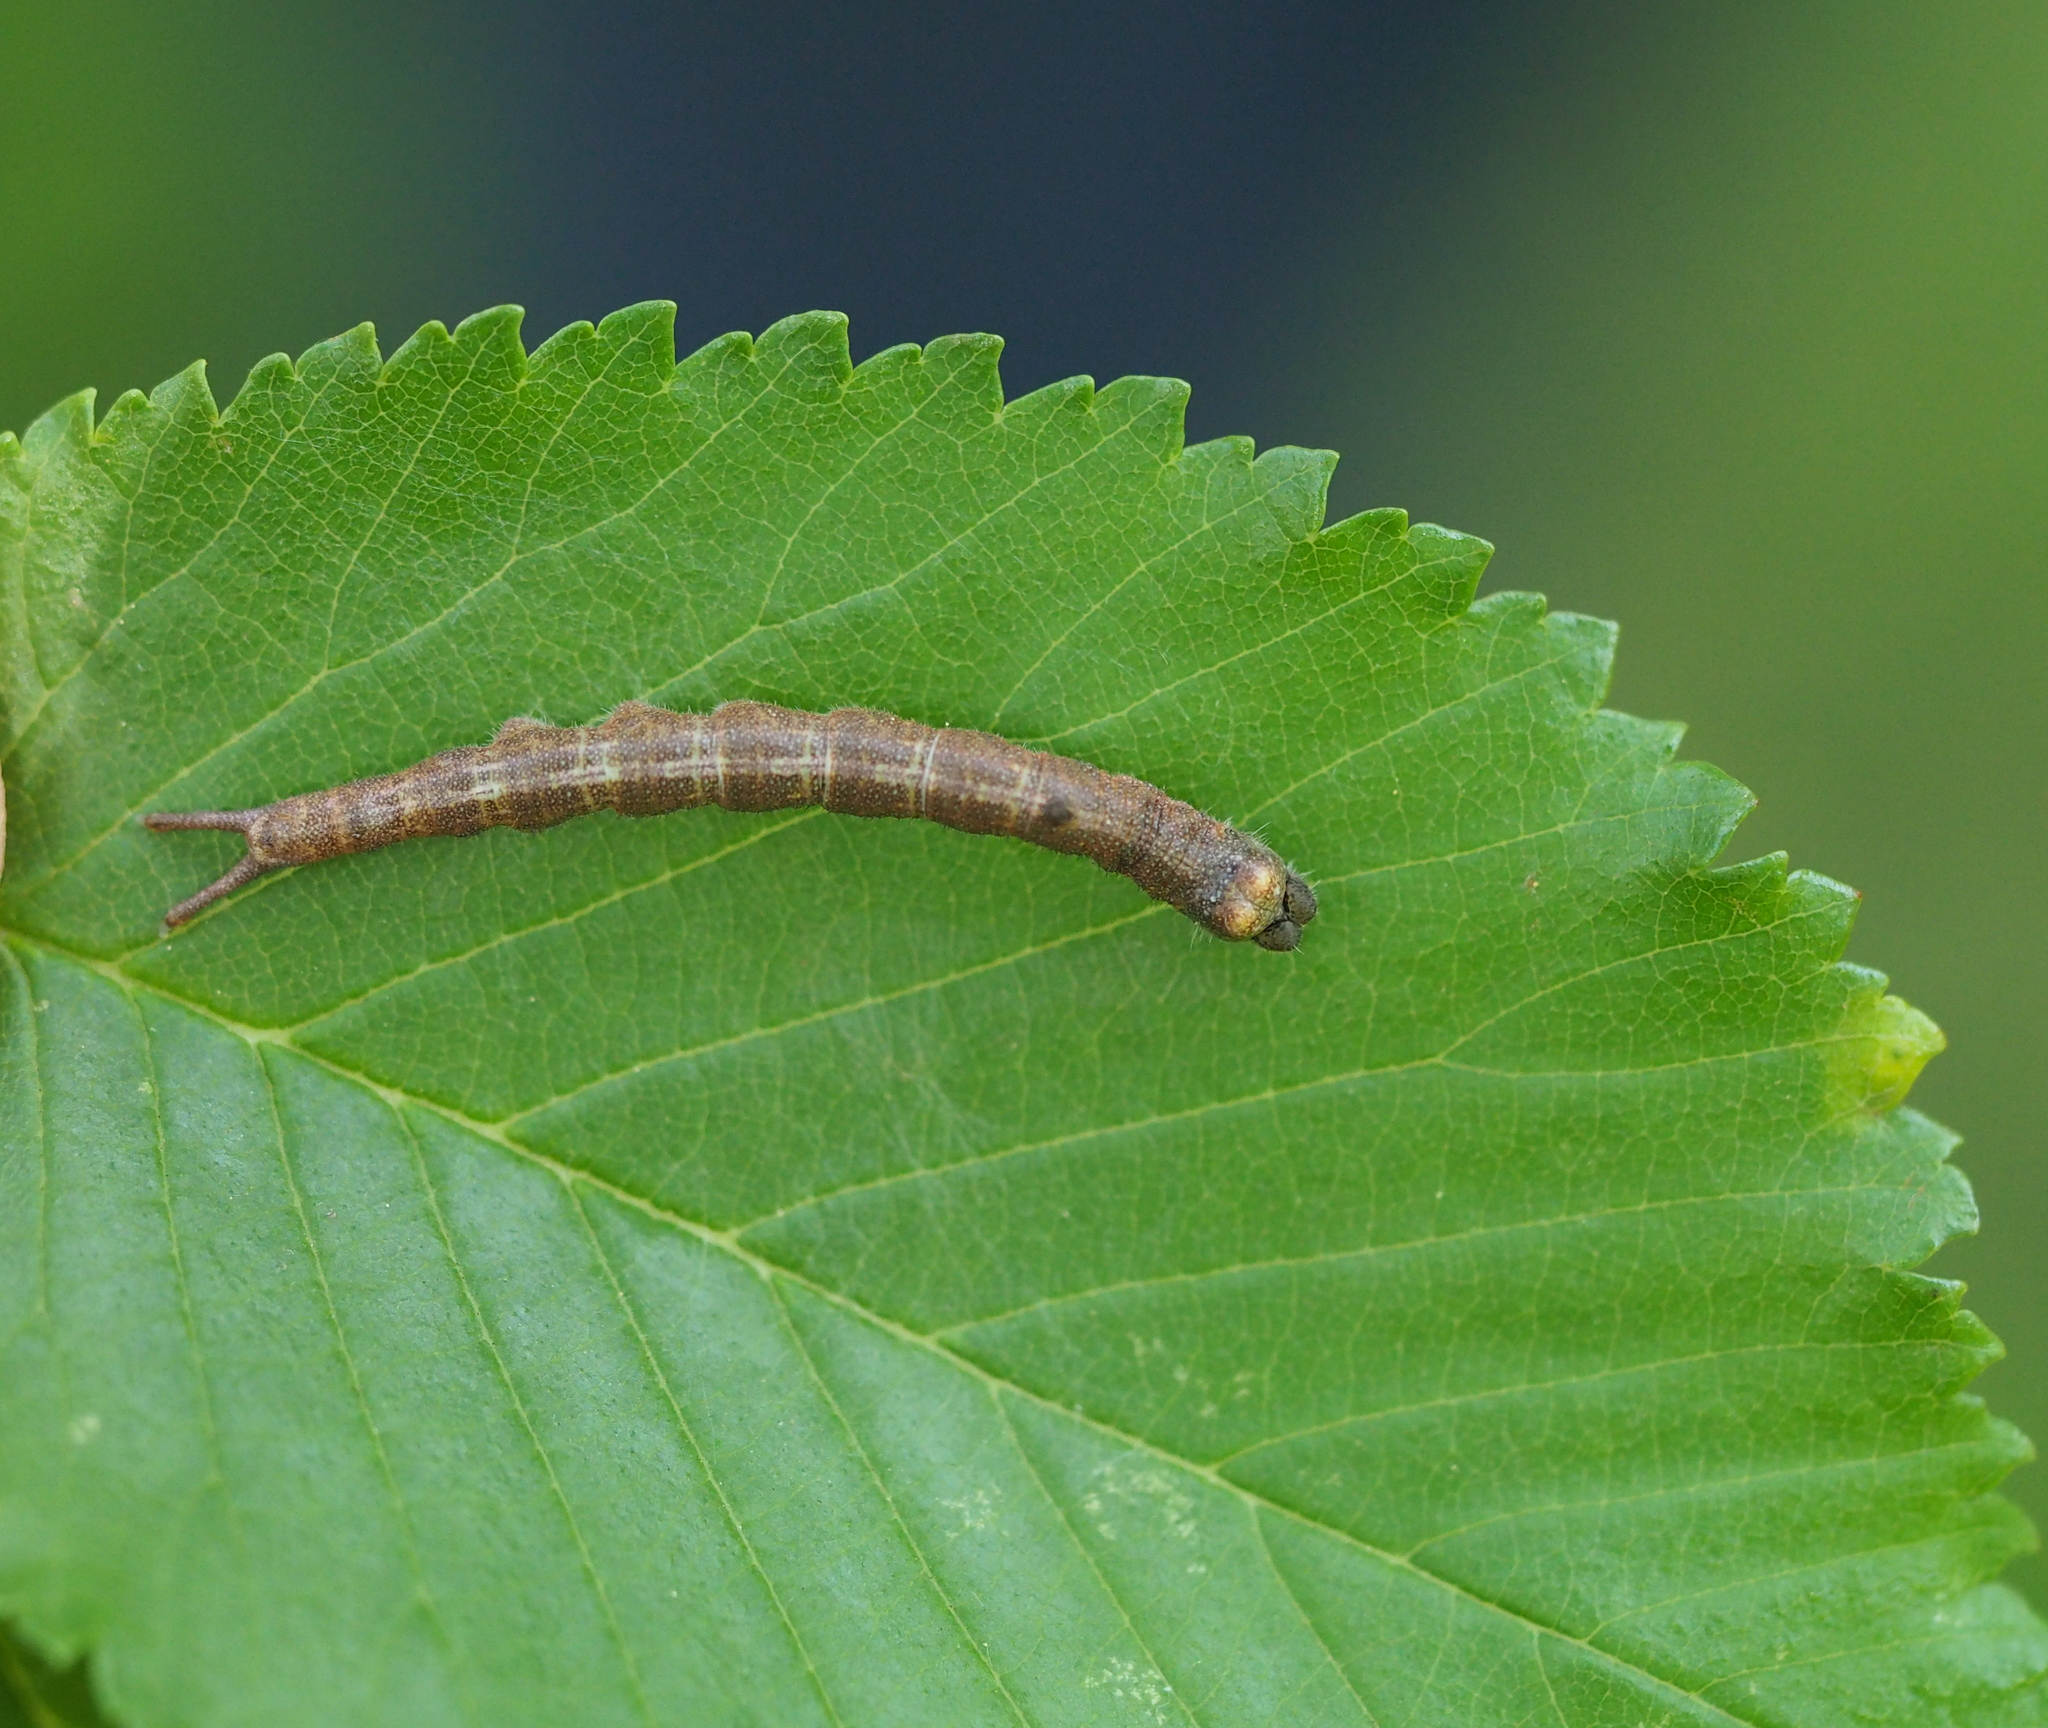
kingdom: Animalia
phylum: Arthropoda
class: Insecta
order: Lepidoptera
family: Notodontidae
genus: Dicranura
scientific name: Dicranura ulmi
